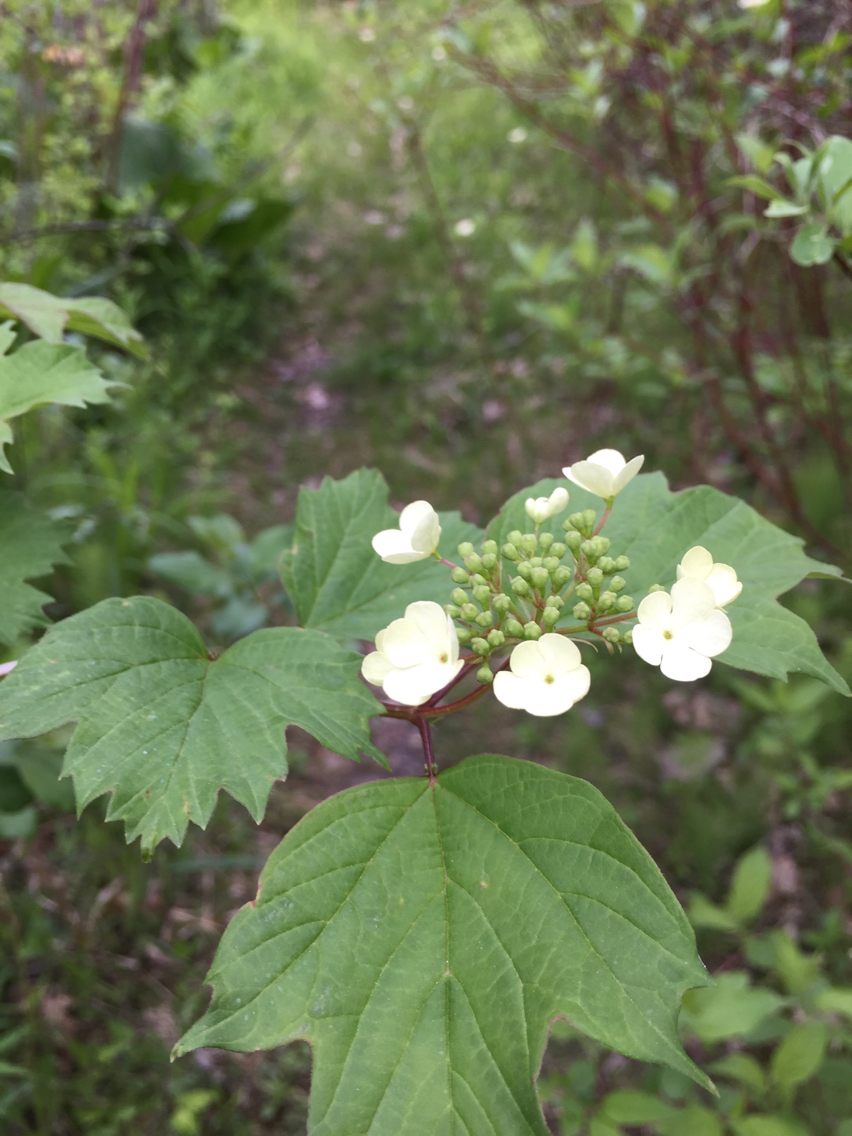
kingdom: Plantae
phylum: Tracheophyta
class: Magnoliopsida
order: Dipsacales
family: Viburnaceae
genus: Viburnum
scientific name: Viburnum opulus
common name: Guelder-rose
